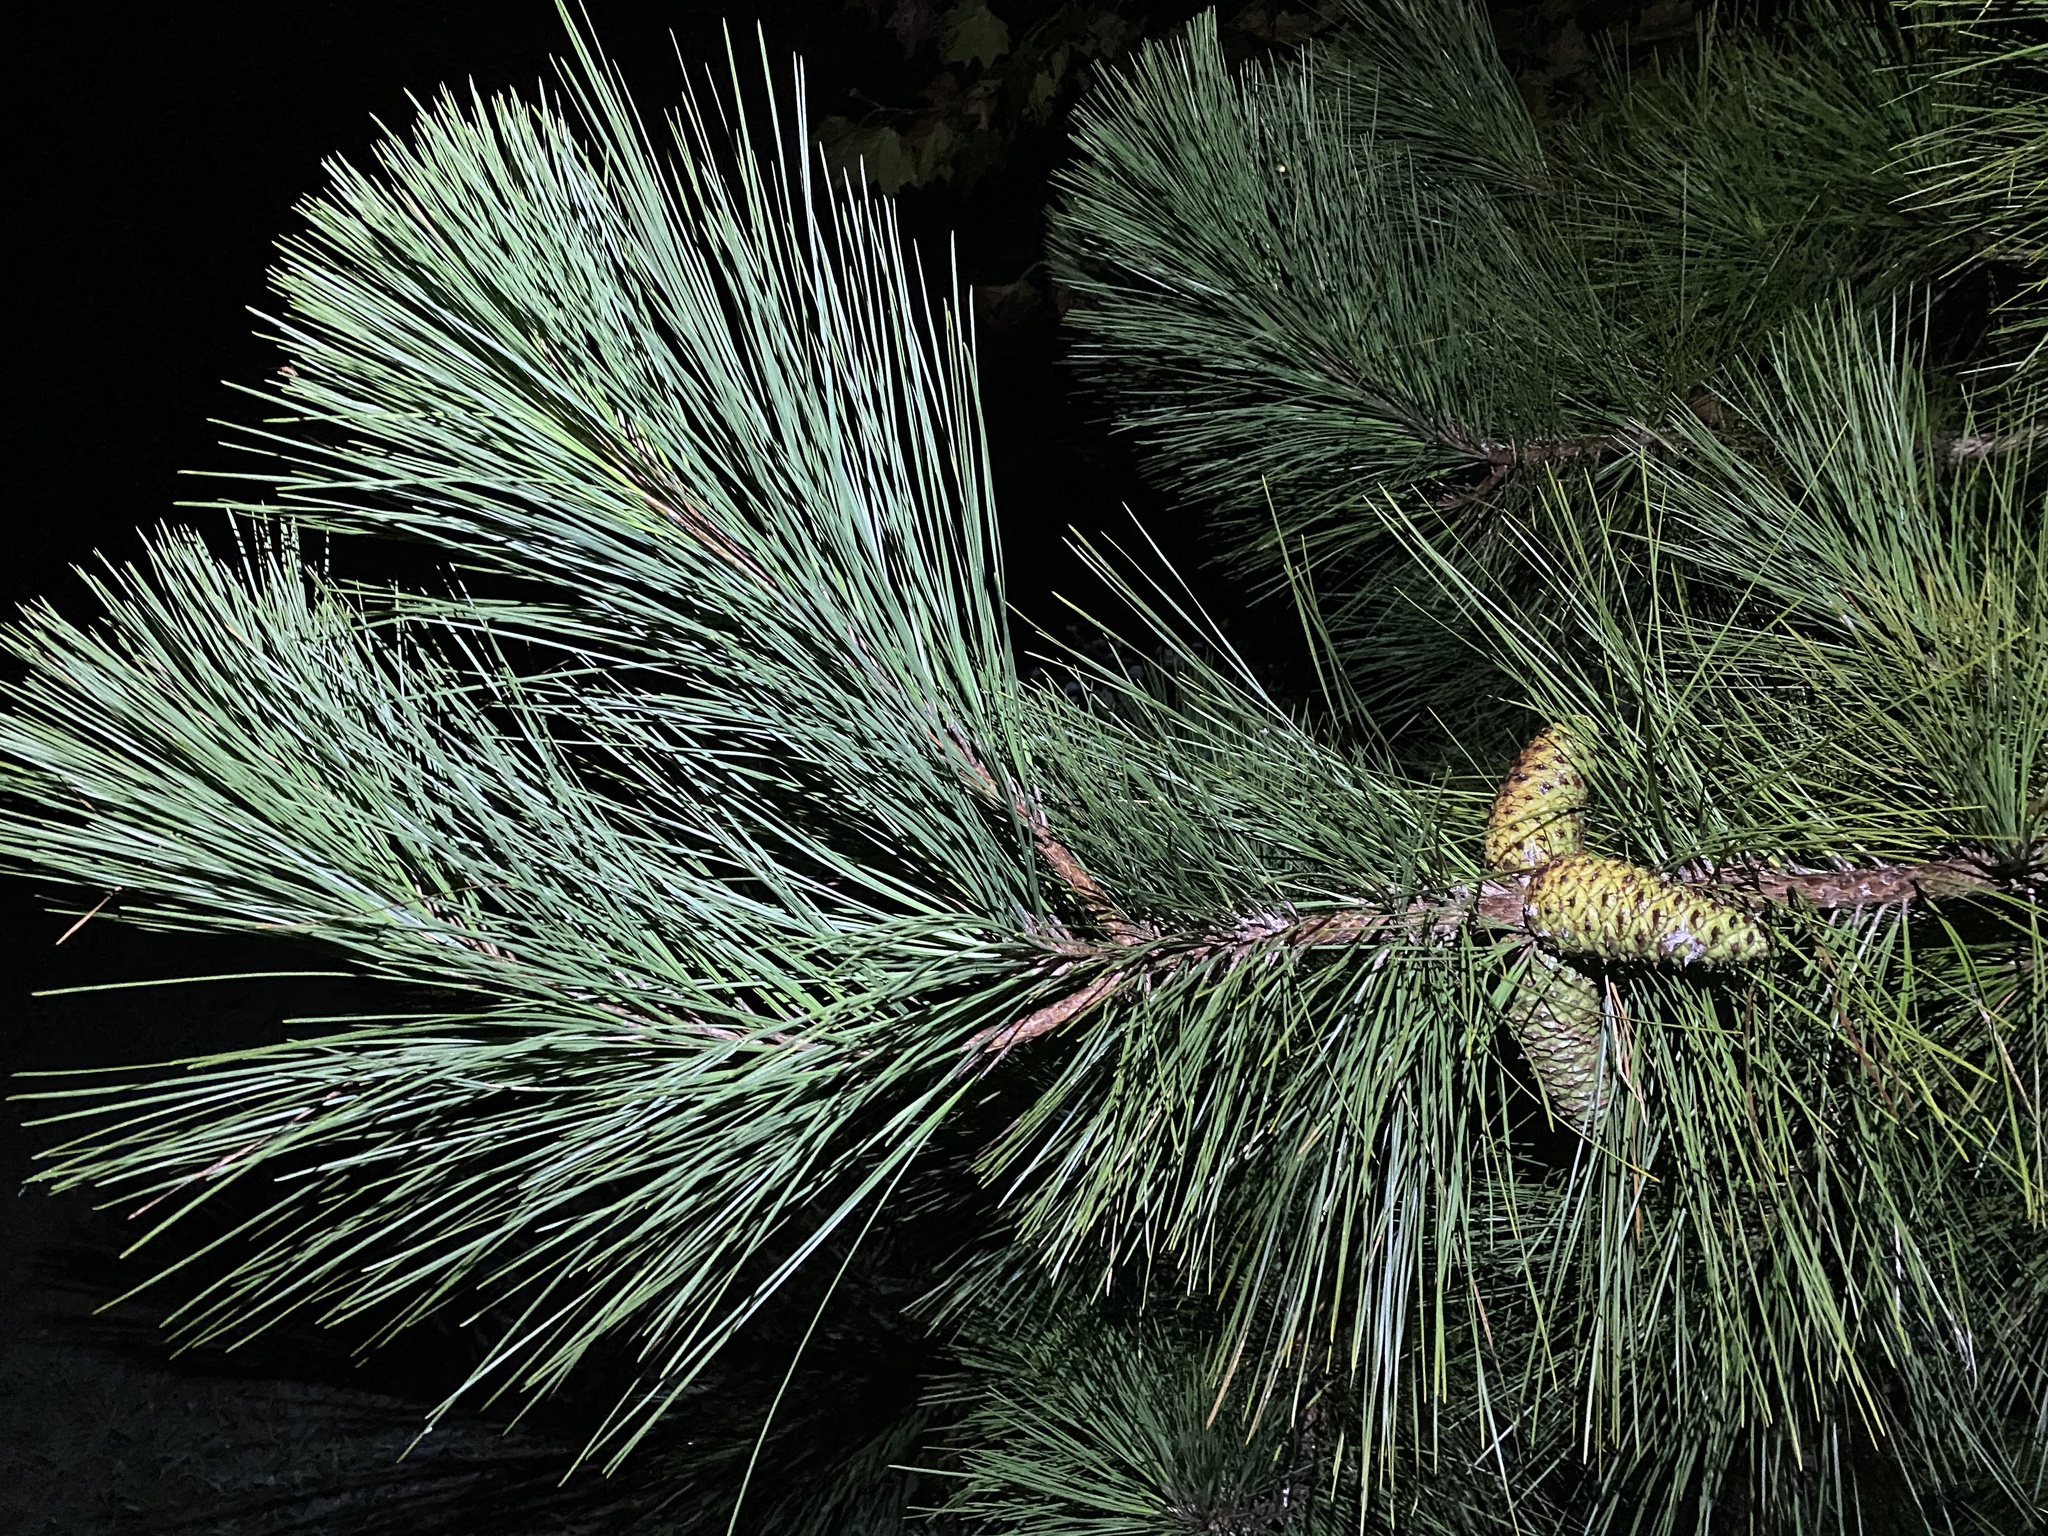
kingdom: Plantae
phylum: Tracheophyta
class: Pinopsida
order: Pinales
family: Pinaceae
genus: Pinus
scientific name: Pinus taeda
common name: Loblolly pine
